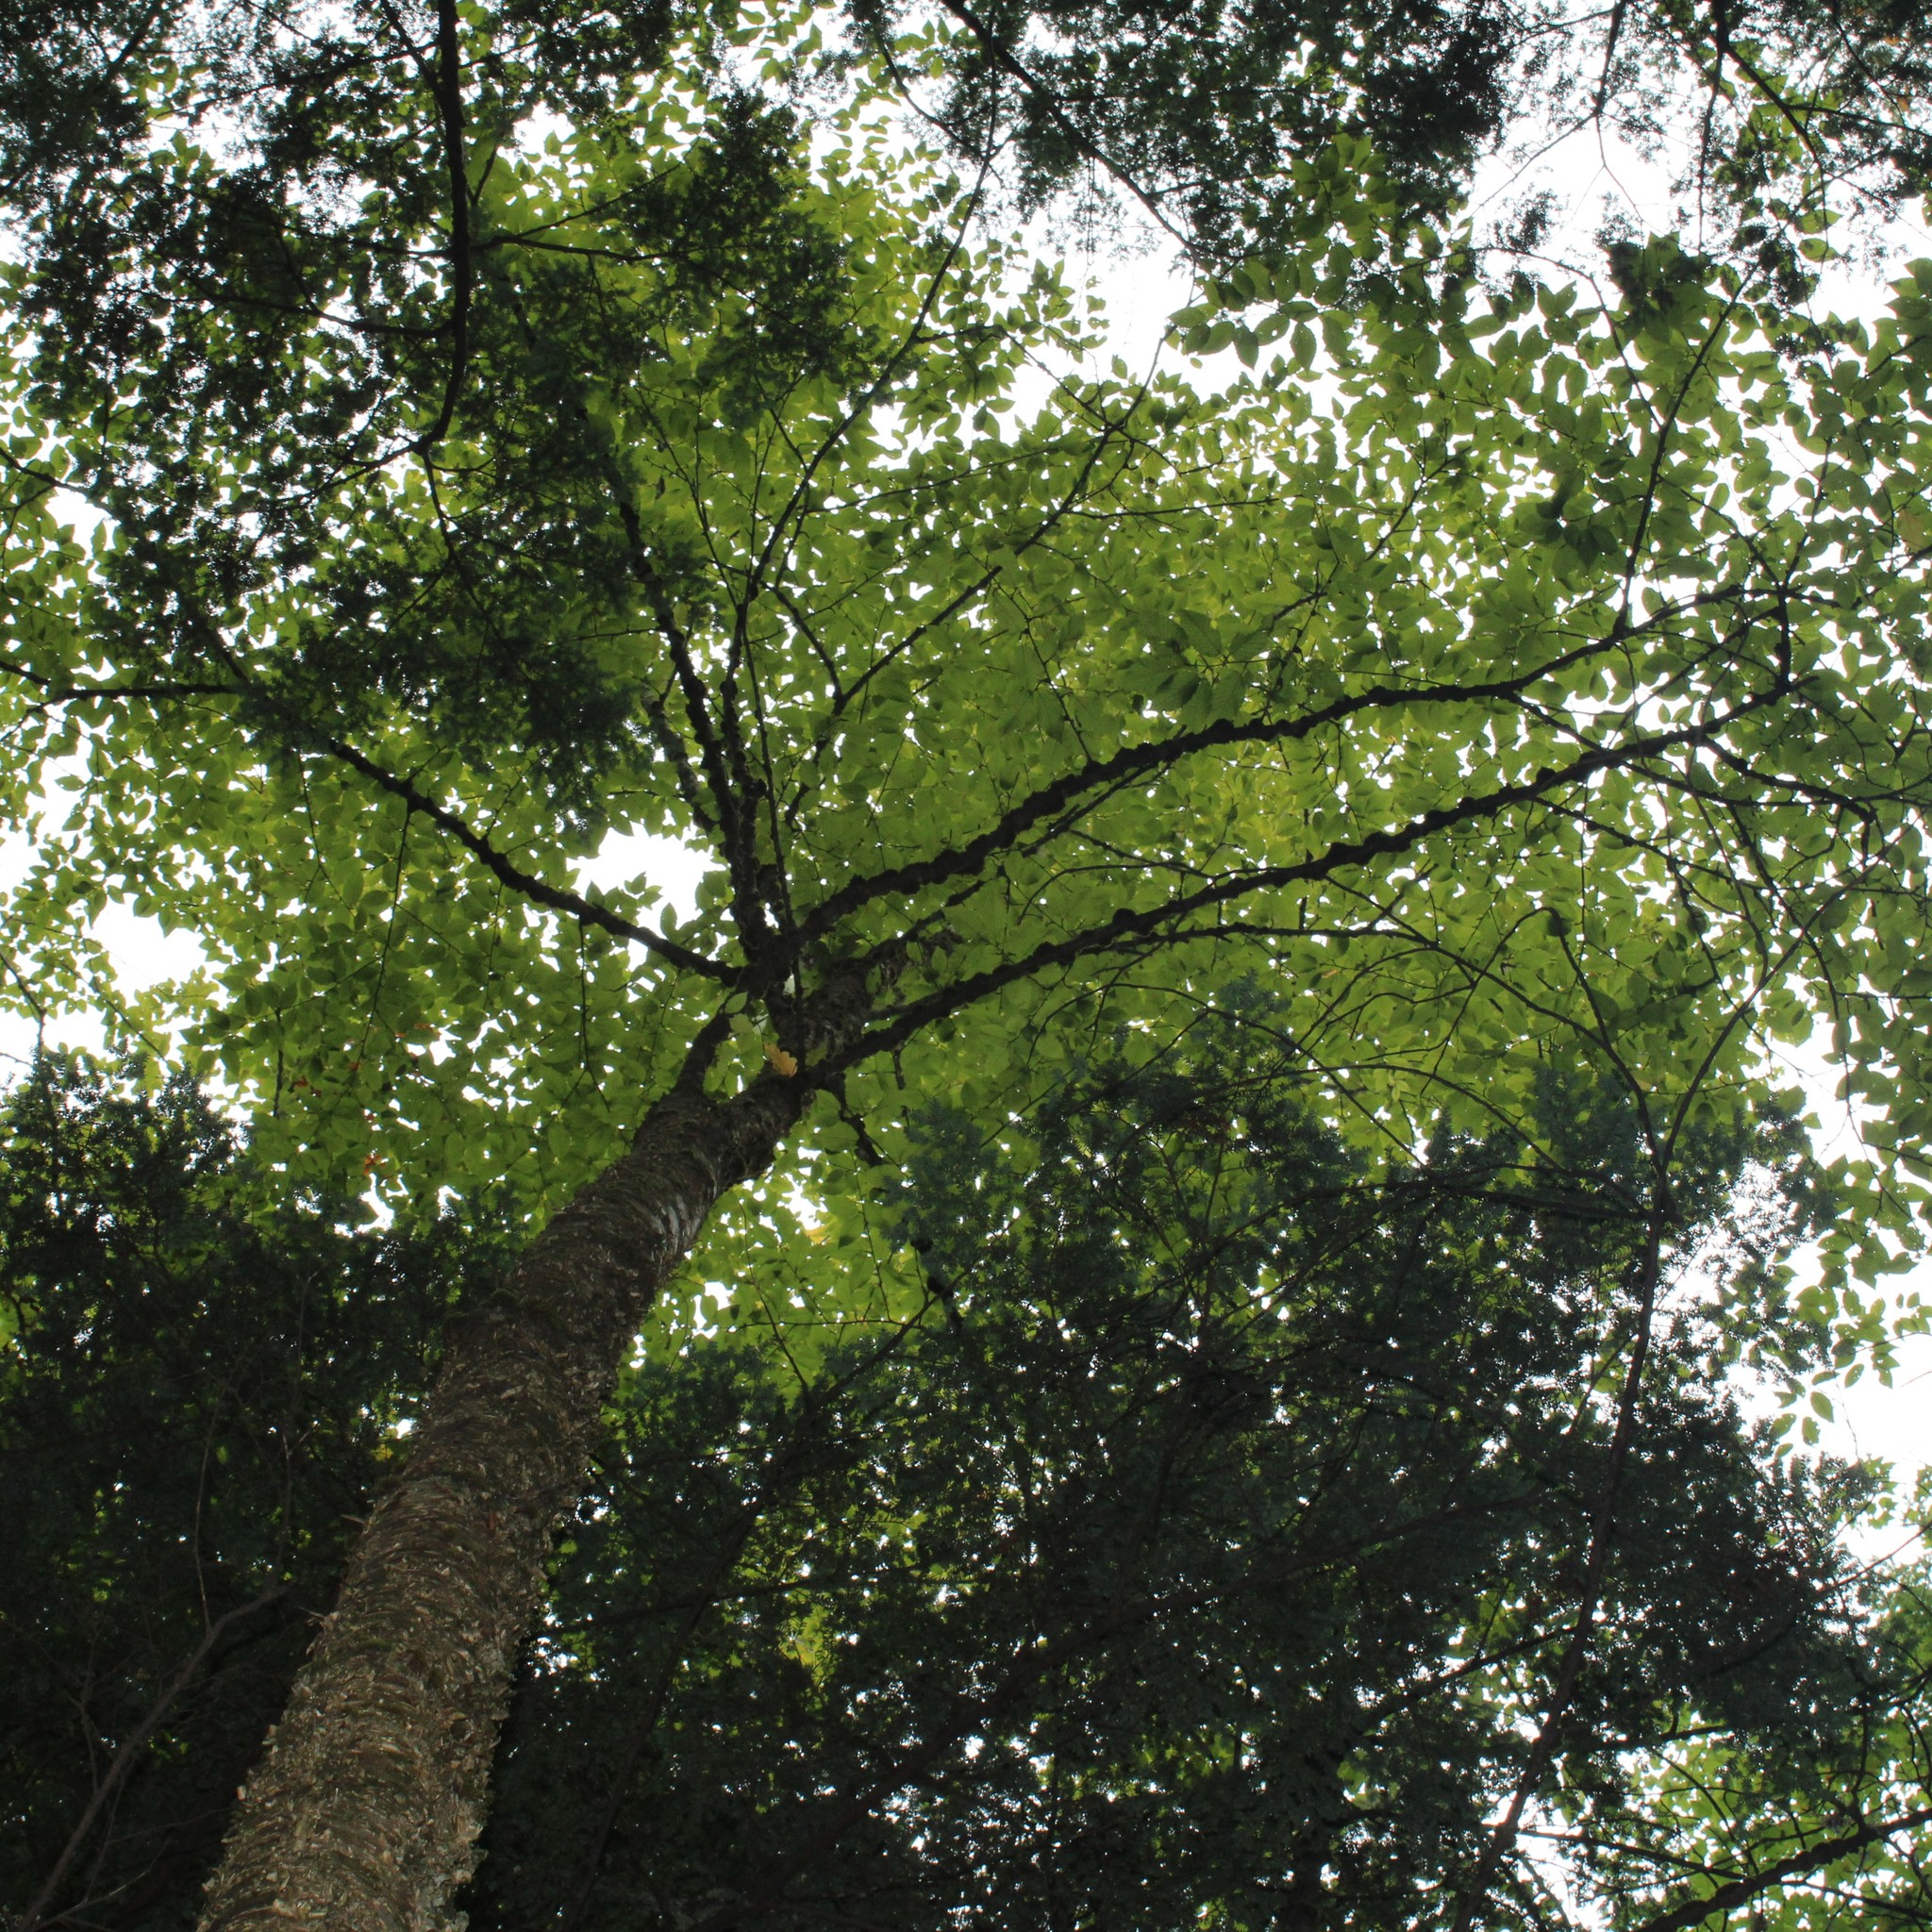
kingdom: Plantae
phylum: Tracheophyta
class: Magnoliopsida
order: Fagales
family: Betulaceae
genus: Betula
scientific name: Betula alleghaniensis
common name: Yellow birch
